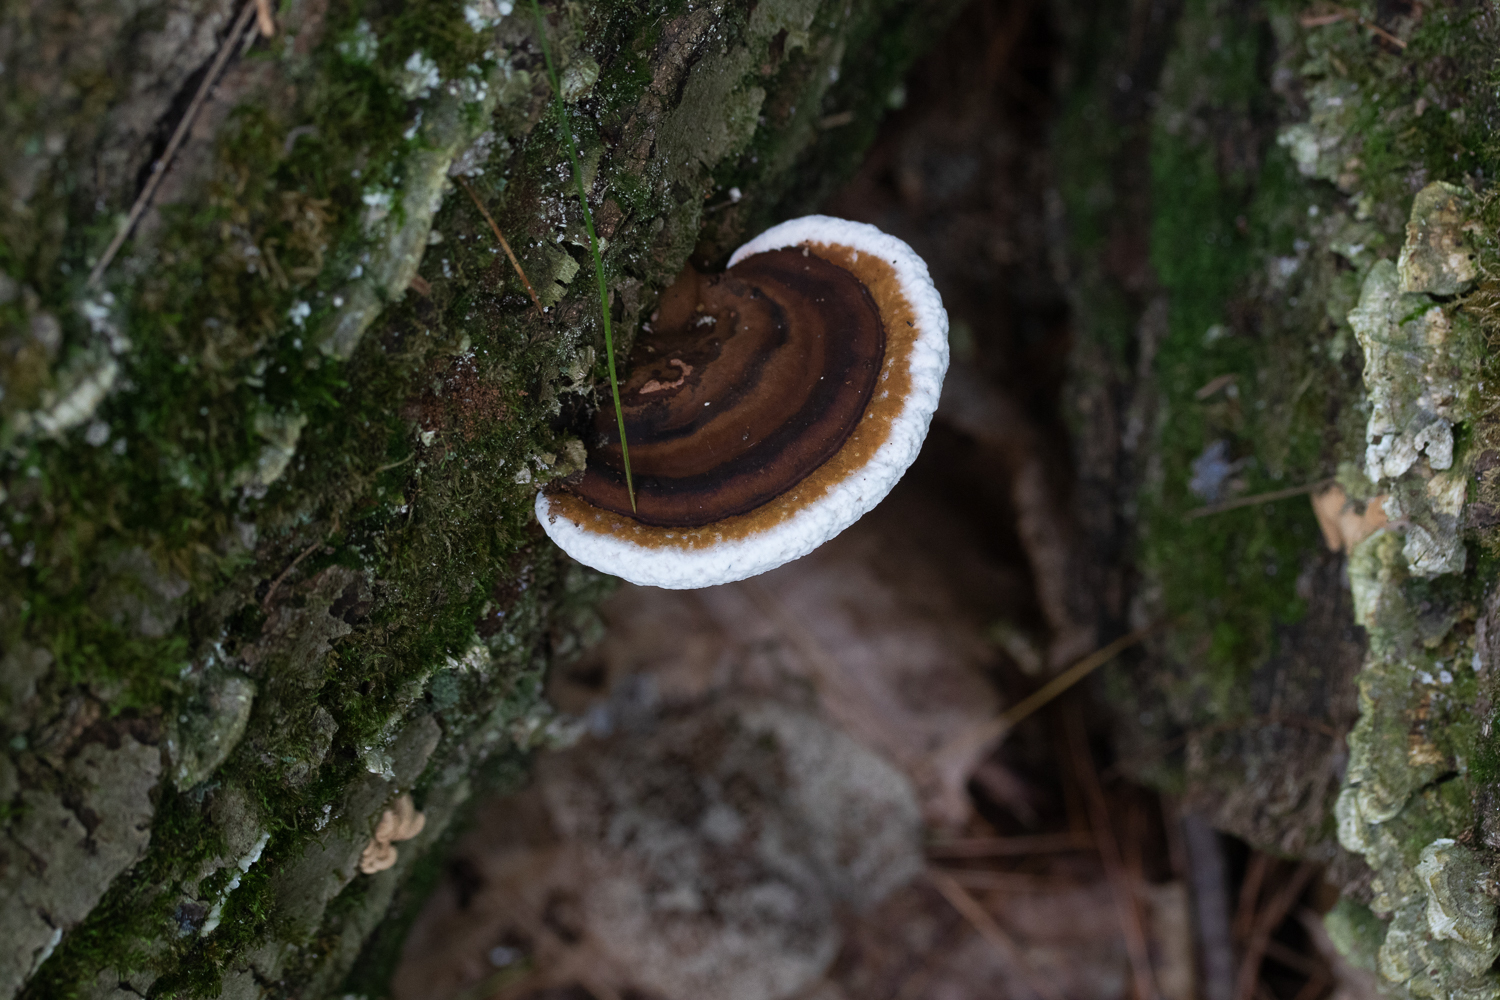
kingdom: Fungi
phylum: Basidiomycota
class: Agaricomycetes
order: Polyporales
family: Polyporaceae
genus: Ganoderma
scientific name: Ganoderma applanatum
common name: Artist's bracket
